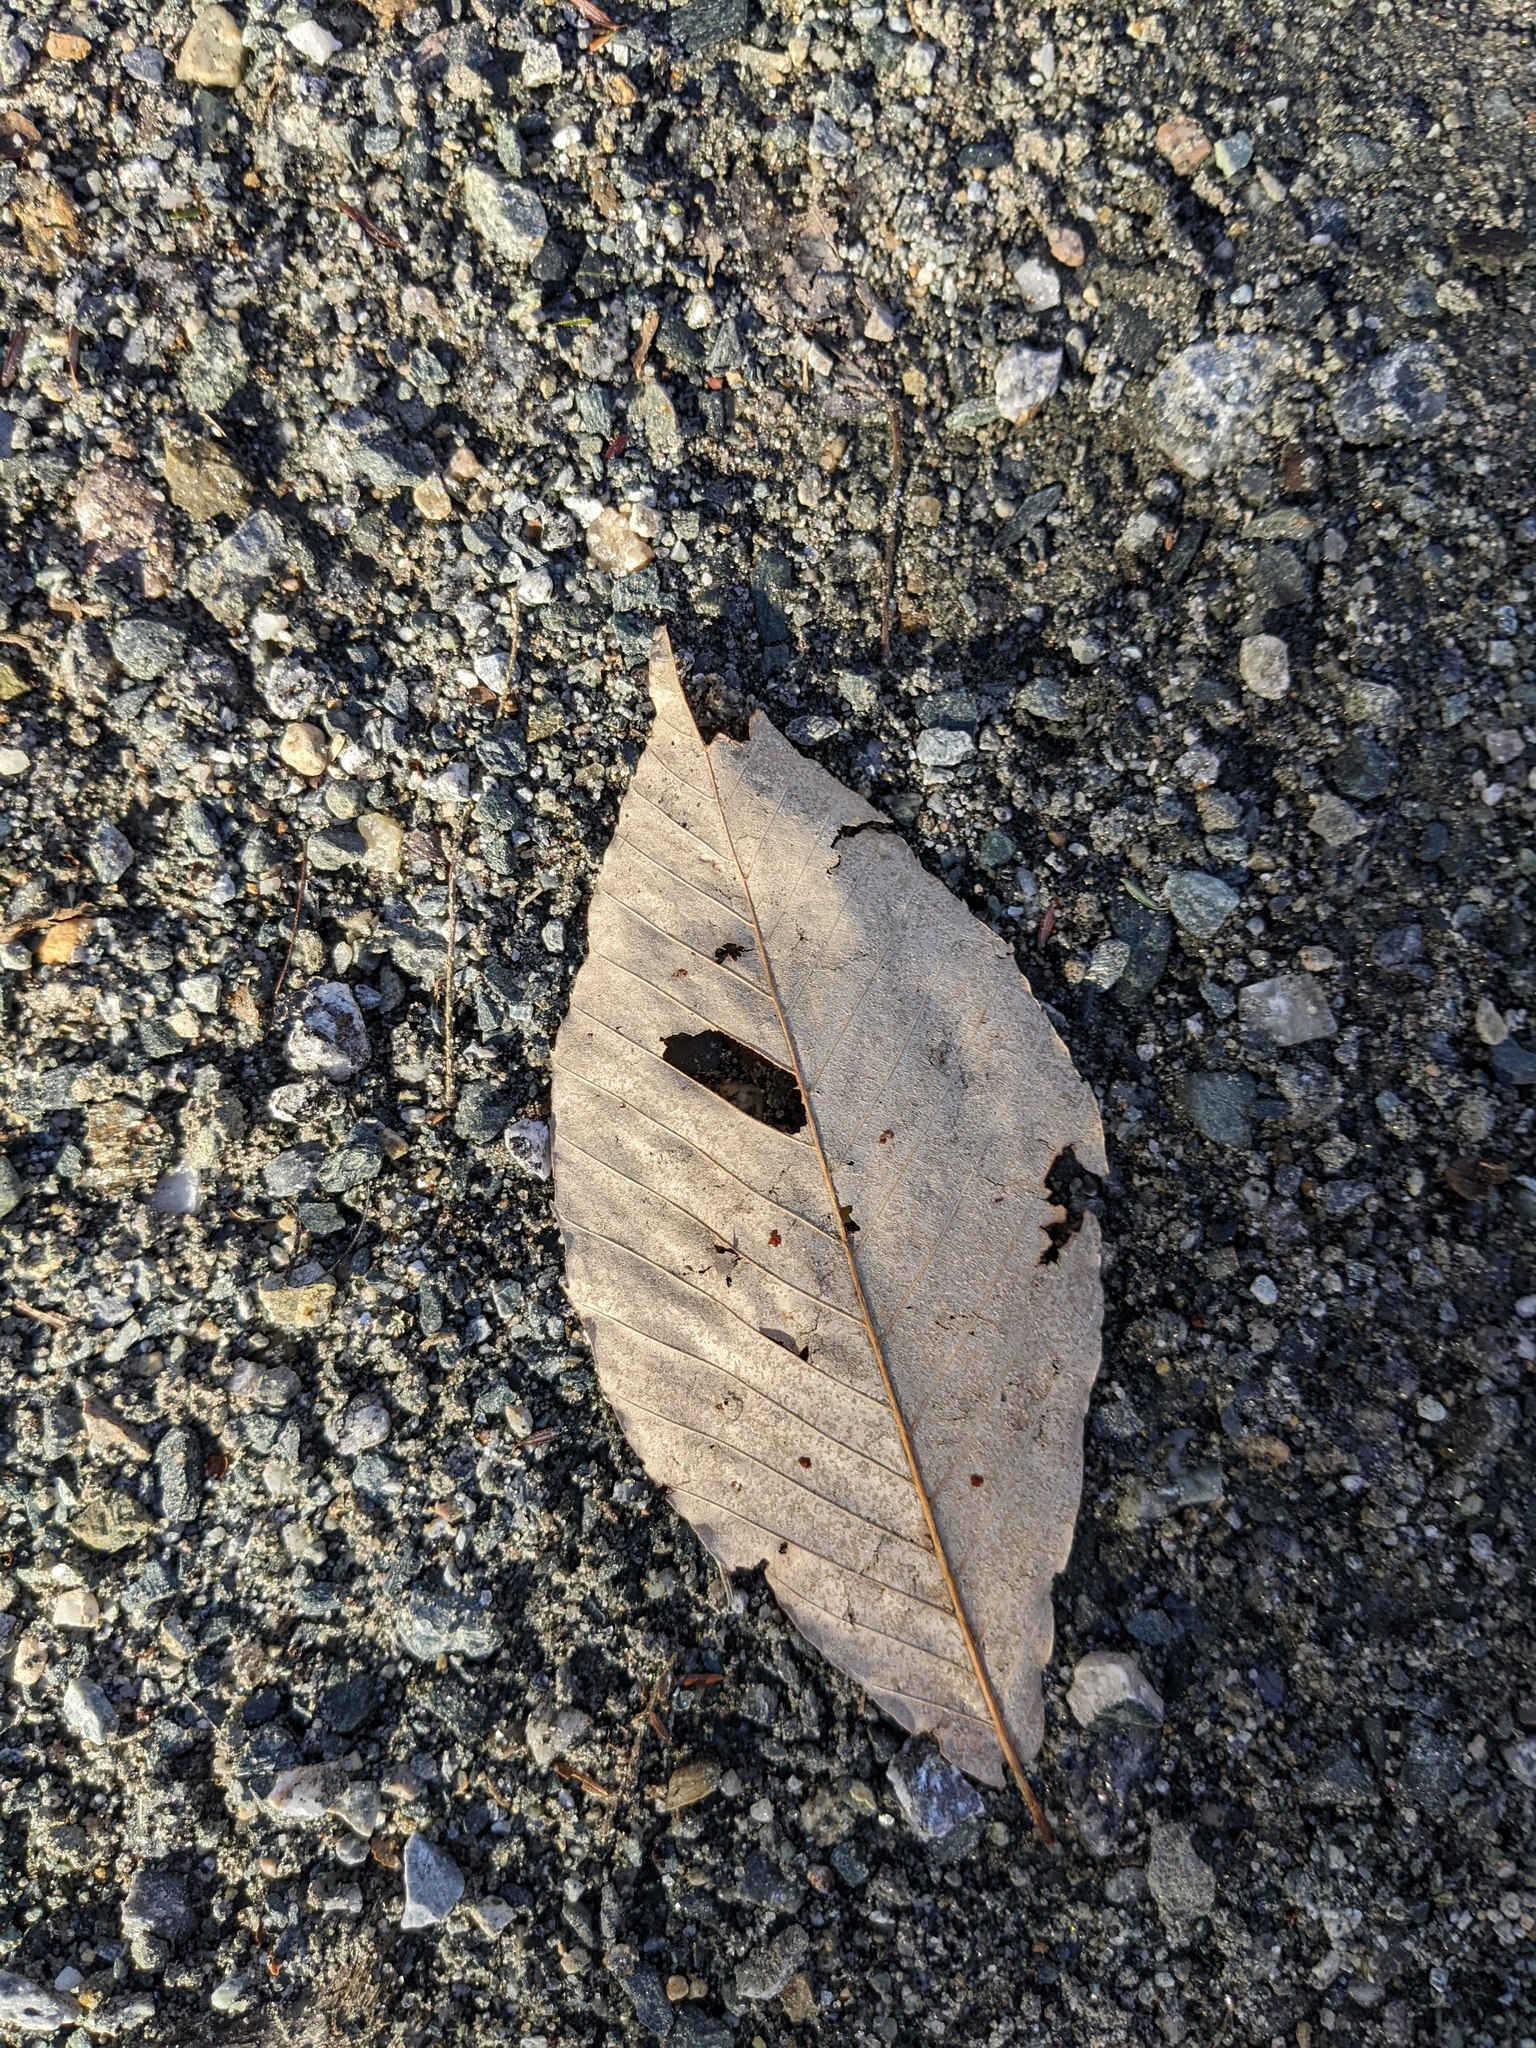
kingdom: Plantae
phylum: Tracheophyta
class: Magnoliopsida
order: Fagales
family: Fagaceae
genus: Fagus
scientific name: Fagus grandifolia
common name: American beech
